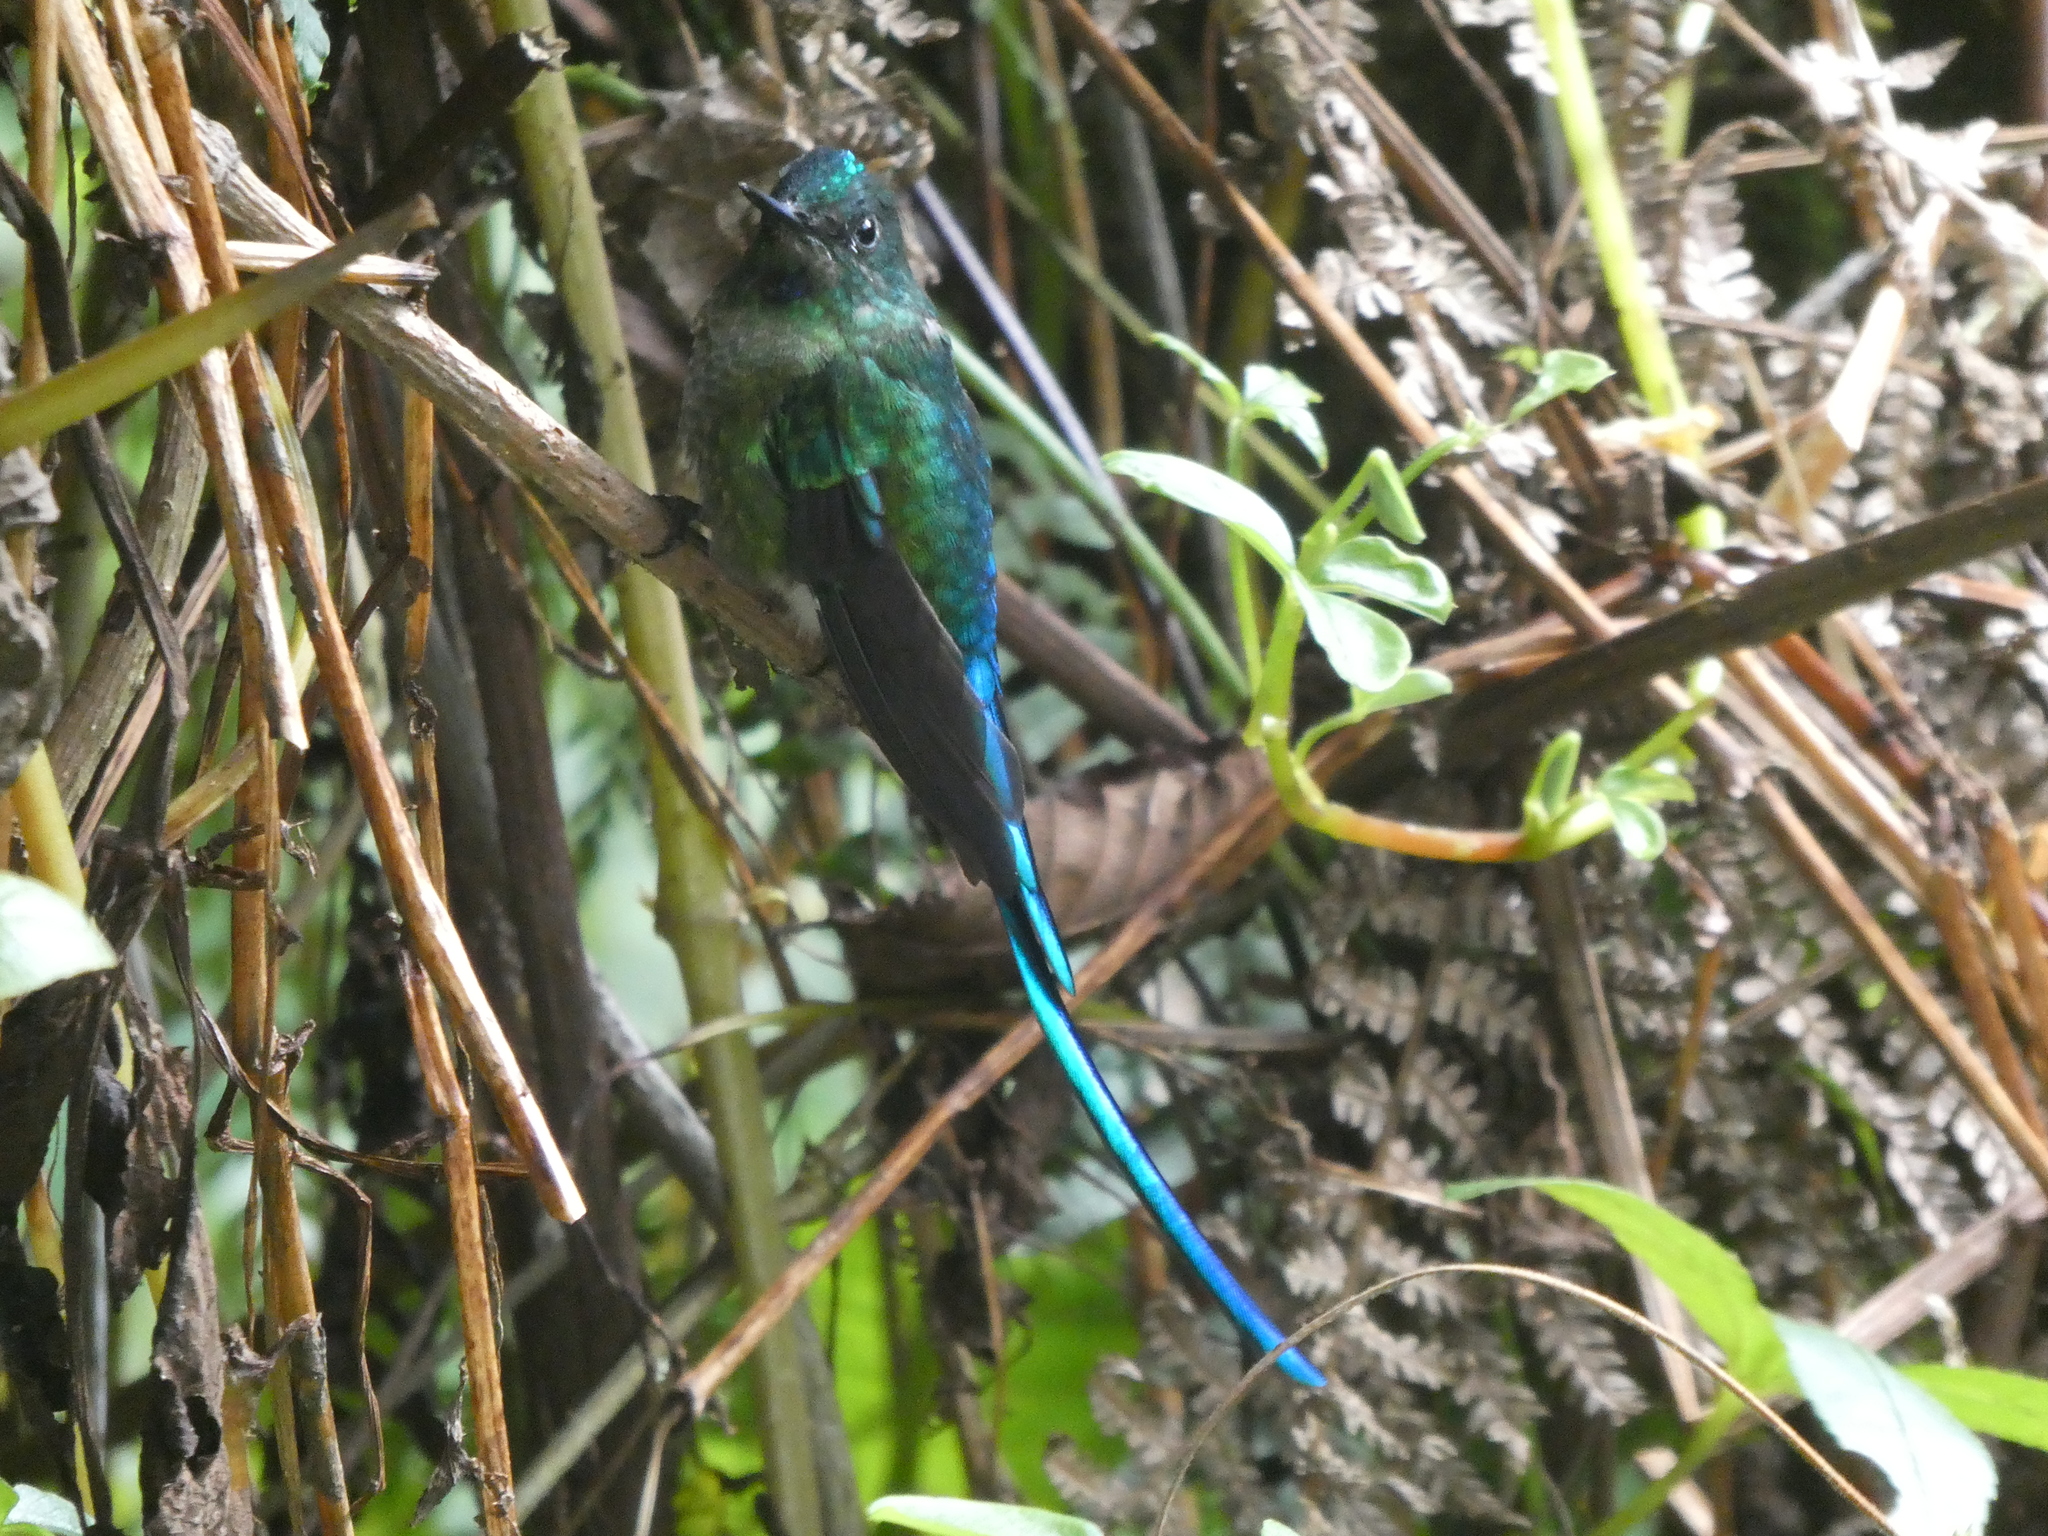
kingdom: Animalia
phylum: Chordata
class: Aves
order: Apodiformes
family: Trochilidae
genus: Aglaiocercus
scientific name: Aglaiocercus kingii
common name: Long-tailed sylph
